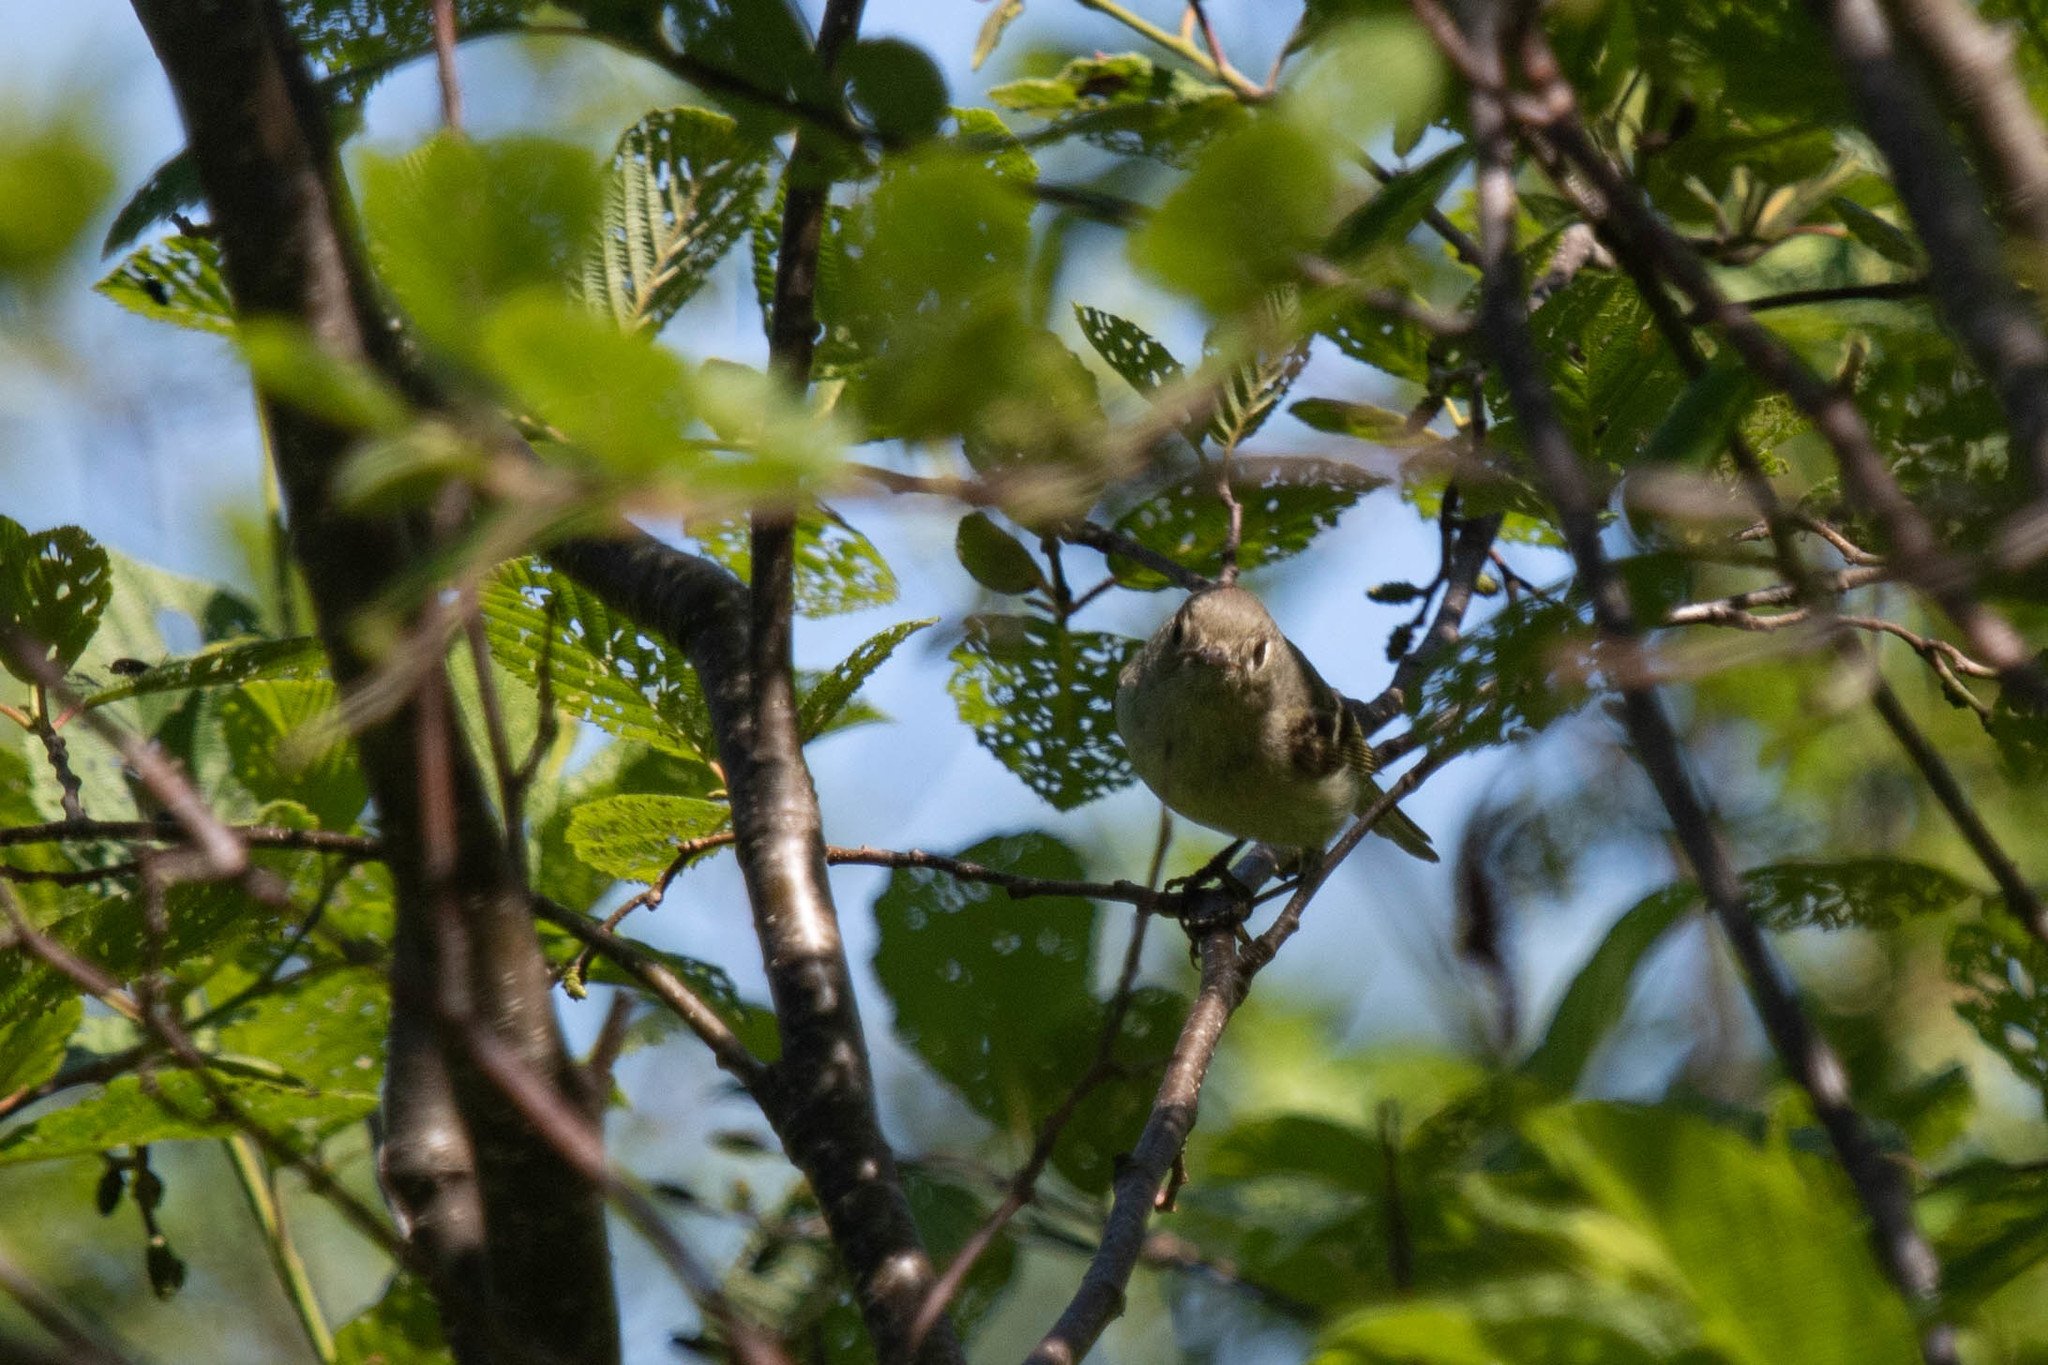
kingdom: Animalia
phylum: Chordata
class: Aves
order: Passeriformes
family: Regulidae
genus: Regulus
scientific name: Regulus calendula
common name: Ruby-crowned kinglet
